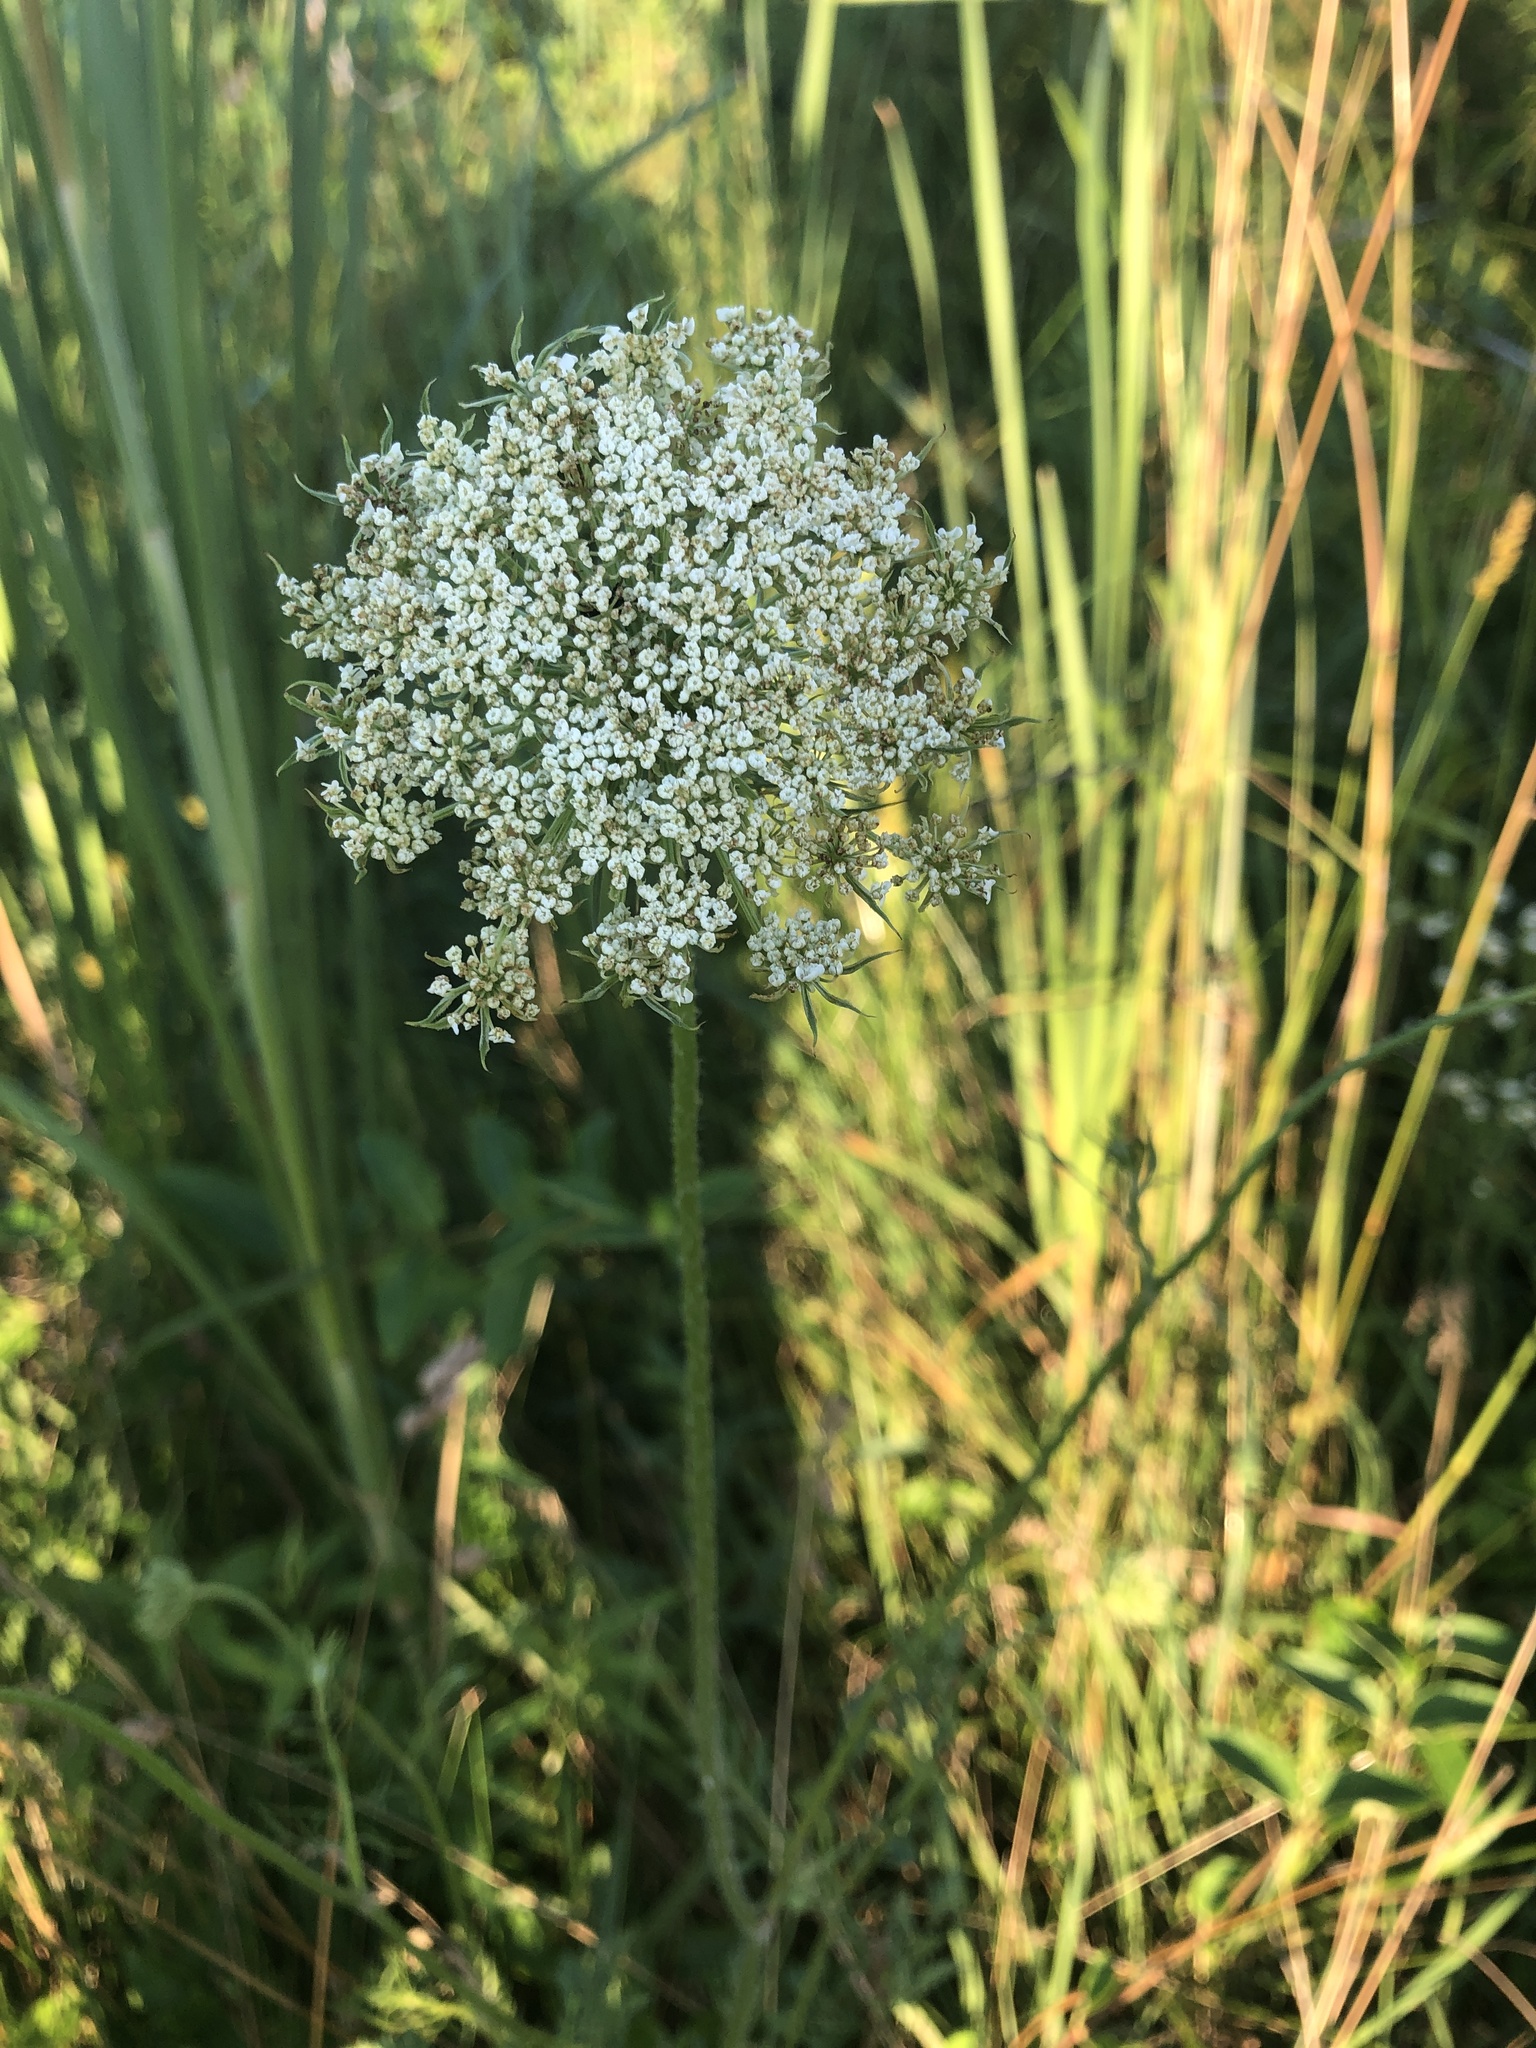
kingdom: Plantae
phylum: Tracheophyta
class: Magnoliopsida
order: Apiales
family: Apiaceae
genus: Daucus
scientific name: Daucus carota
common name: Wild carrot
